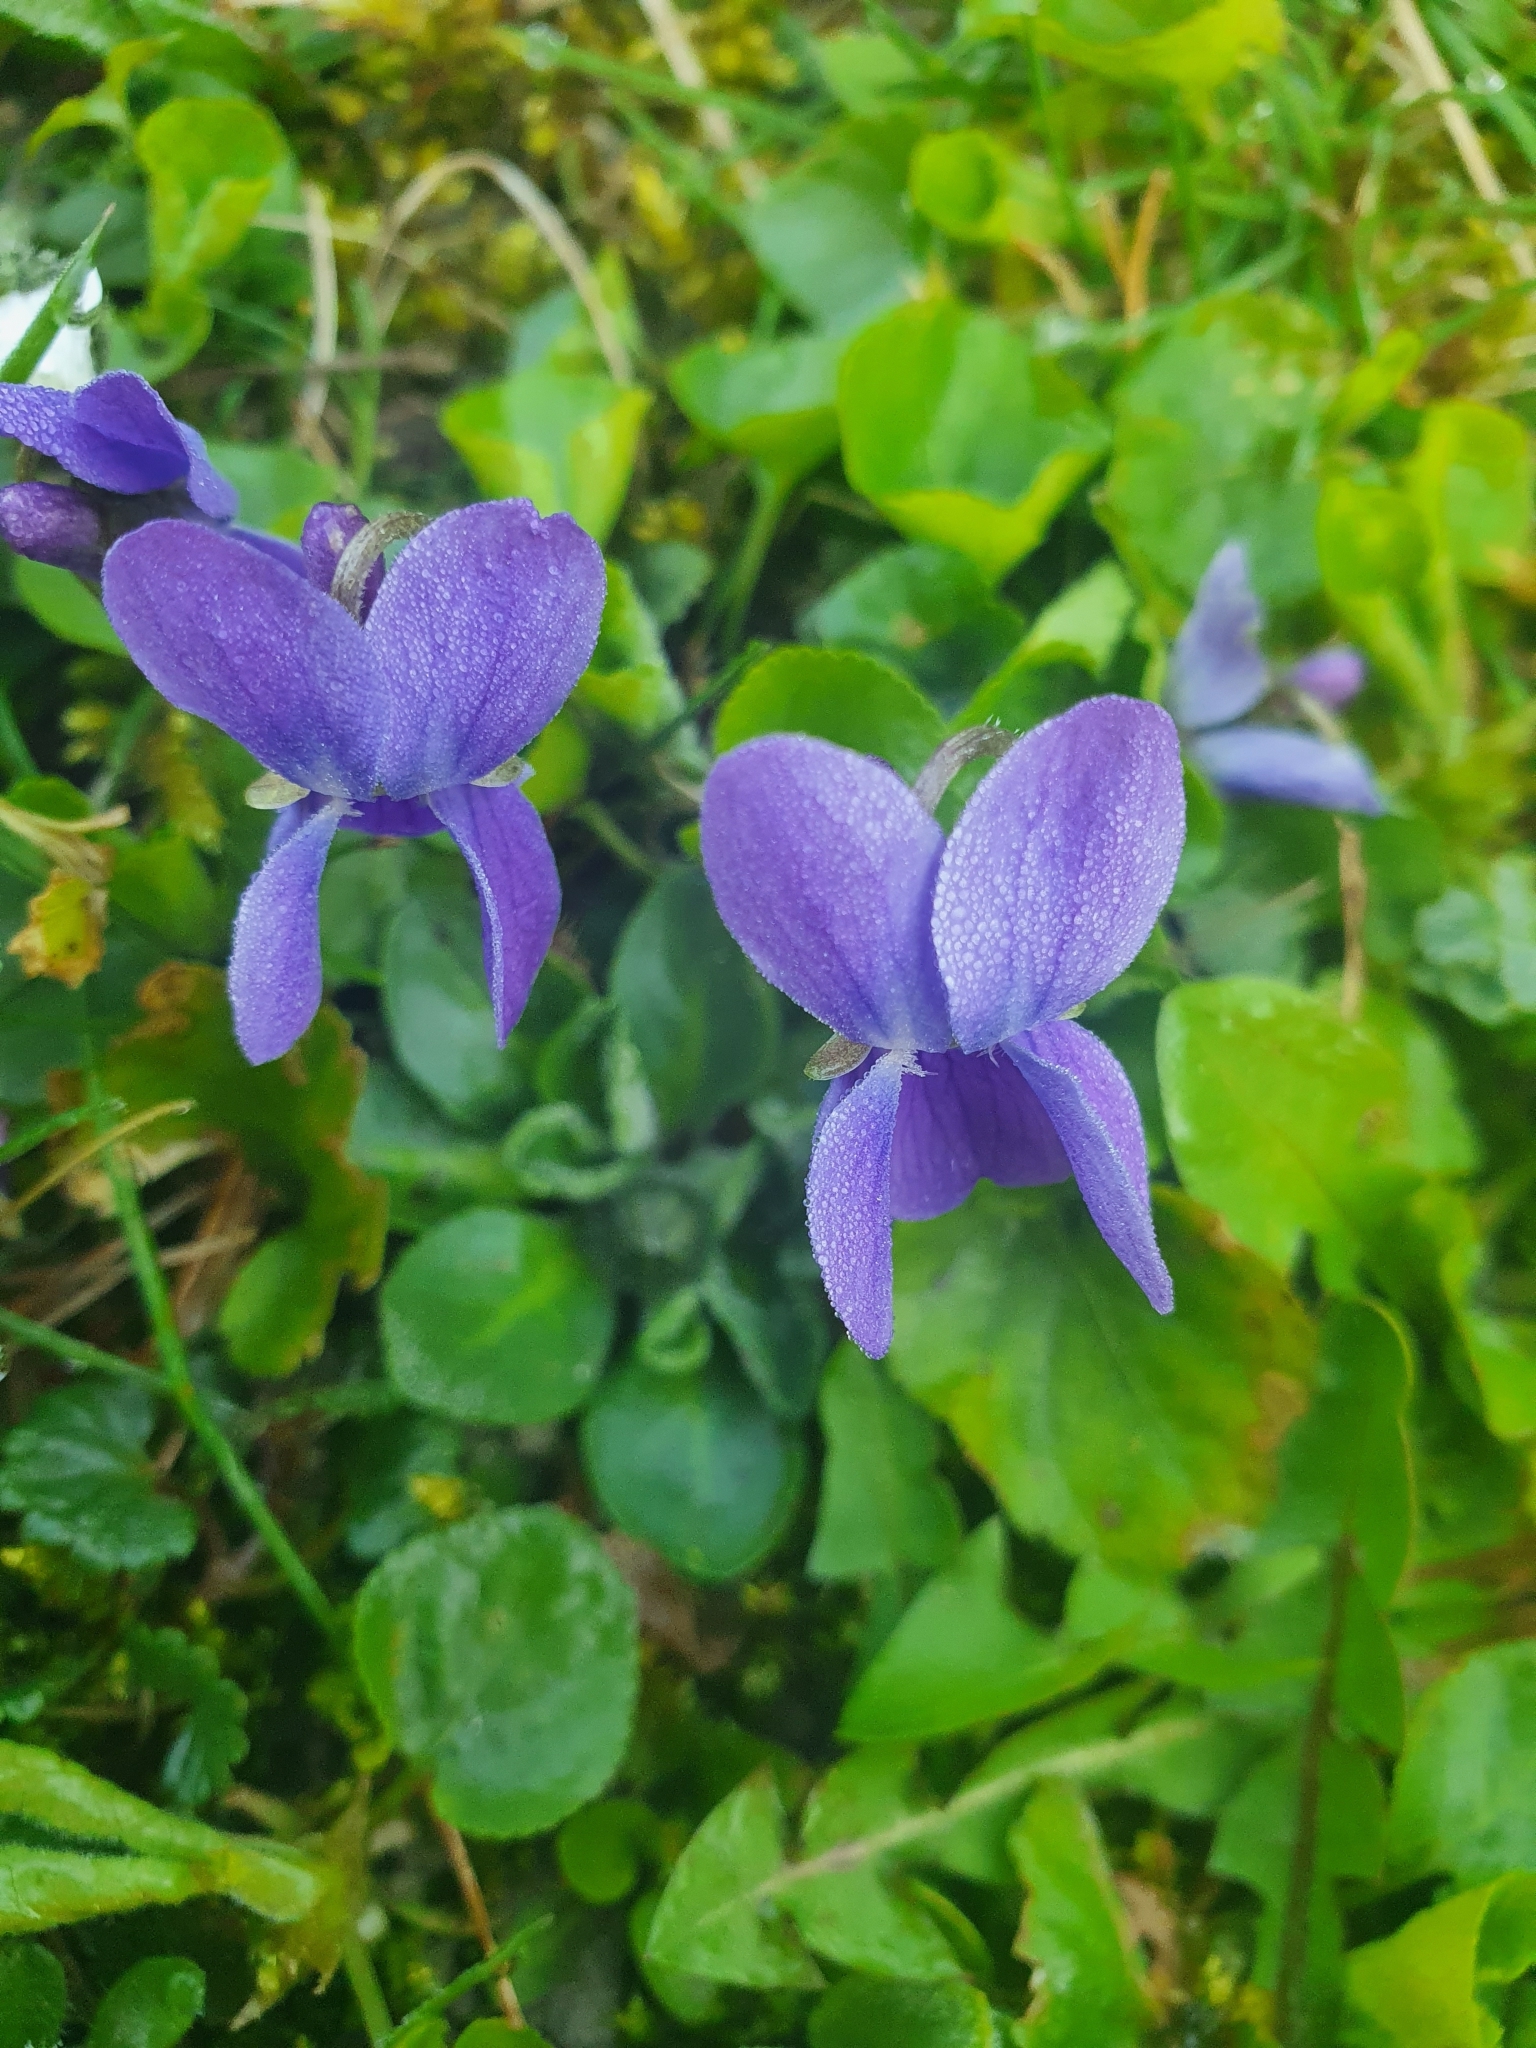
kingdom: Plantae
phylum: Tracheophyta
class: Magnoliopsida
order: Malpighiales
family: Violaceae
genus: Viola
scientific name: Viola odorata
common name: Sweet violet
